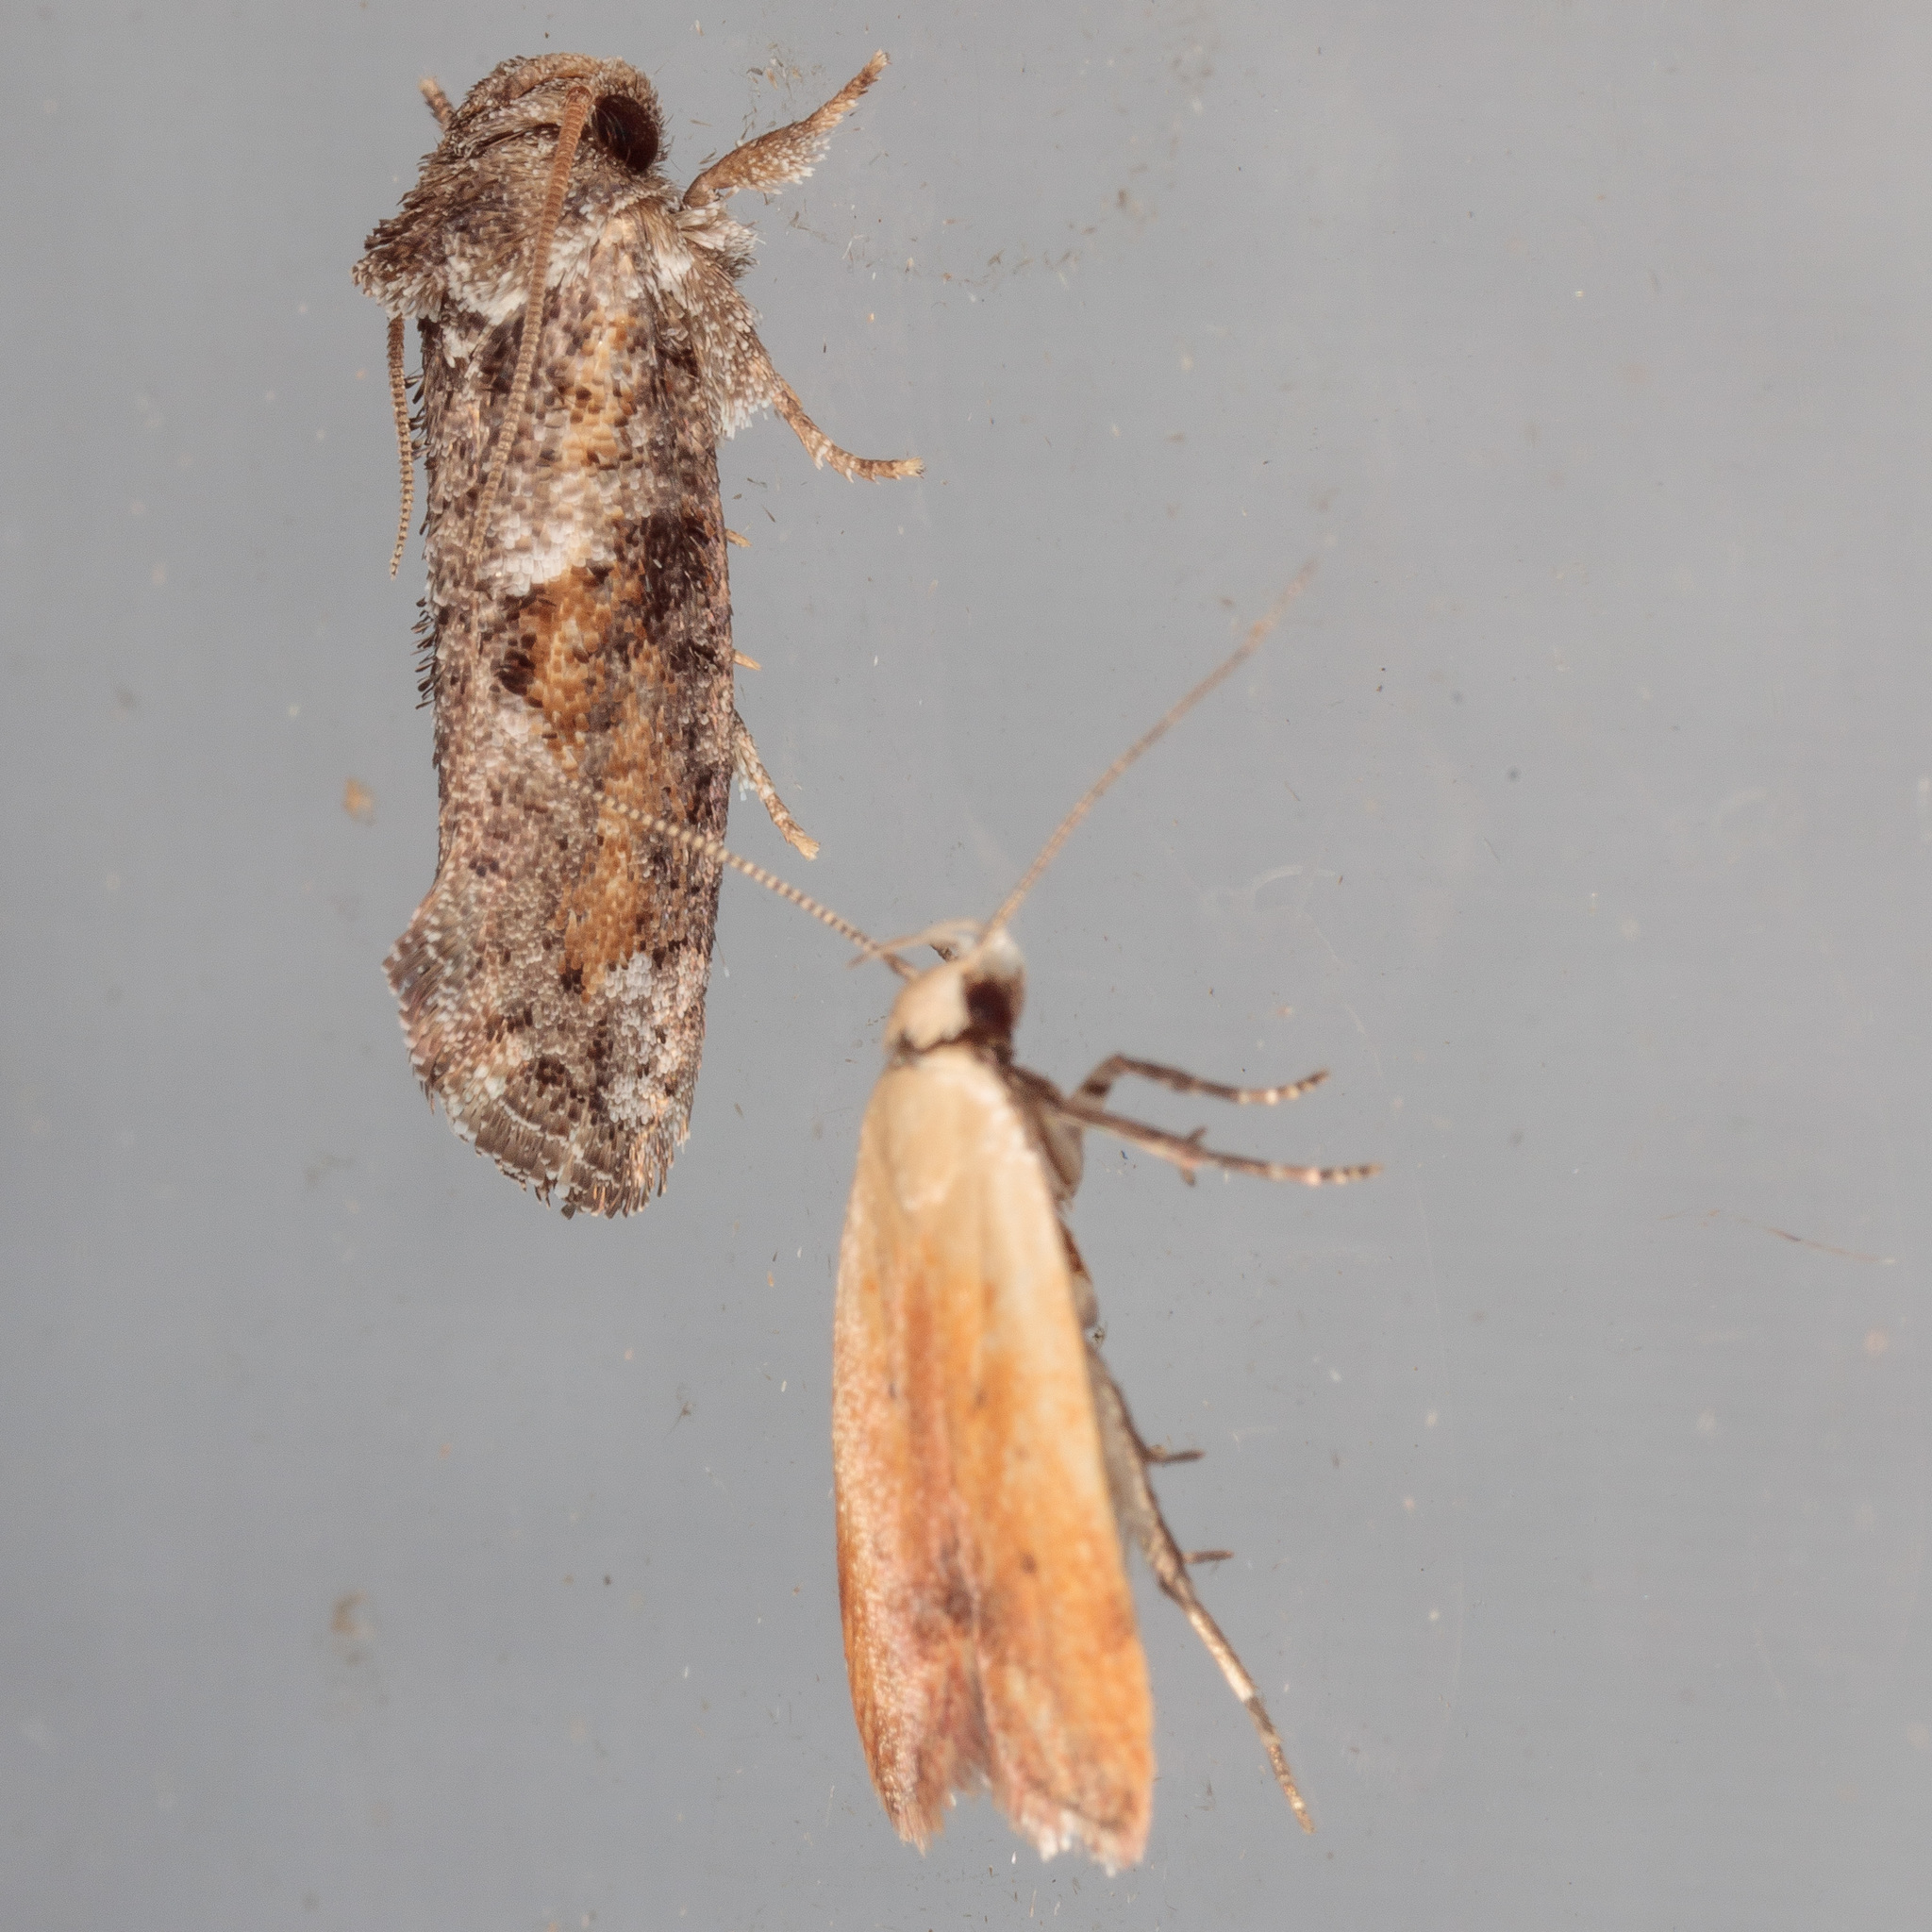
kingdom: Animalia
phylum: Arthropoda
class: Insecta
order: Lepidoptera
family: Tineidae
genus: Acrolophus
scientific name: Acrolophus piger
